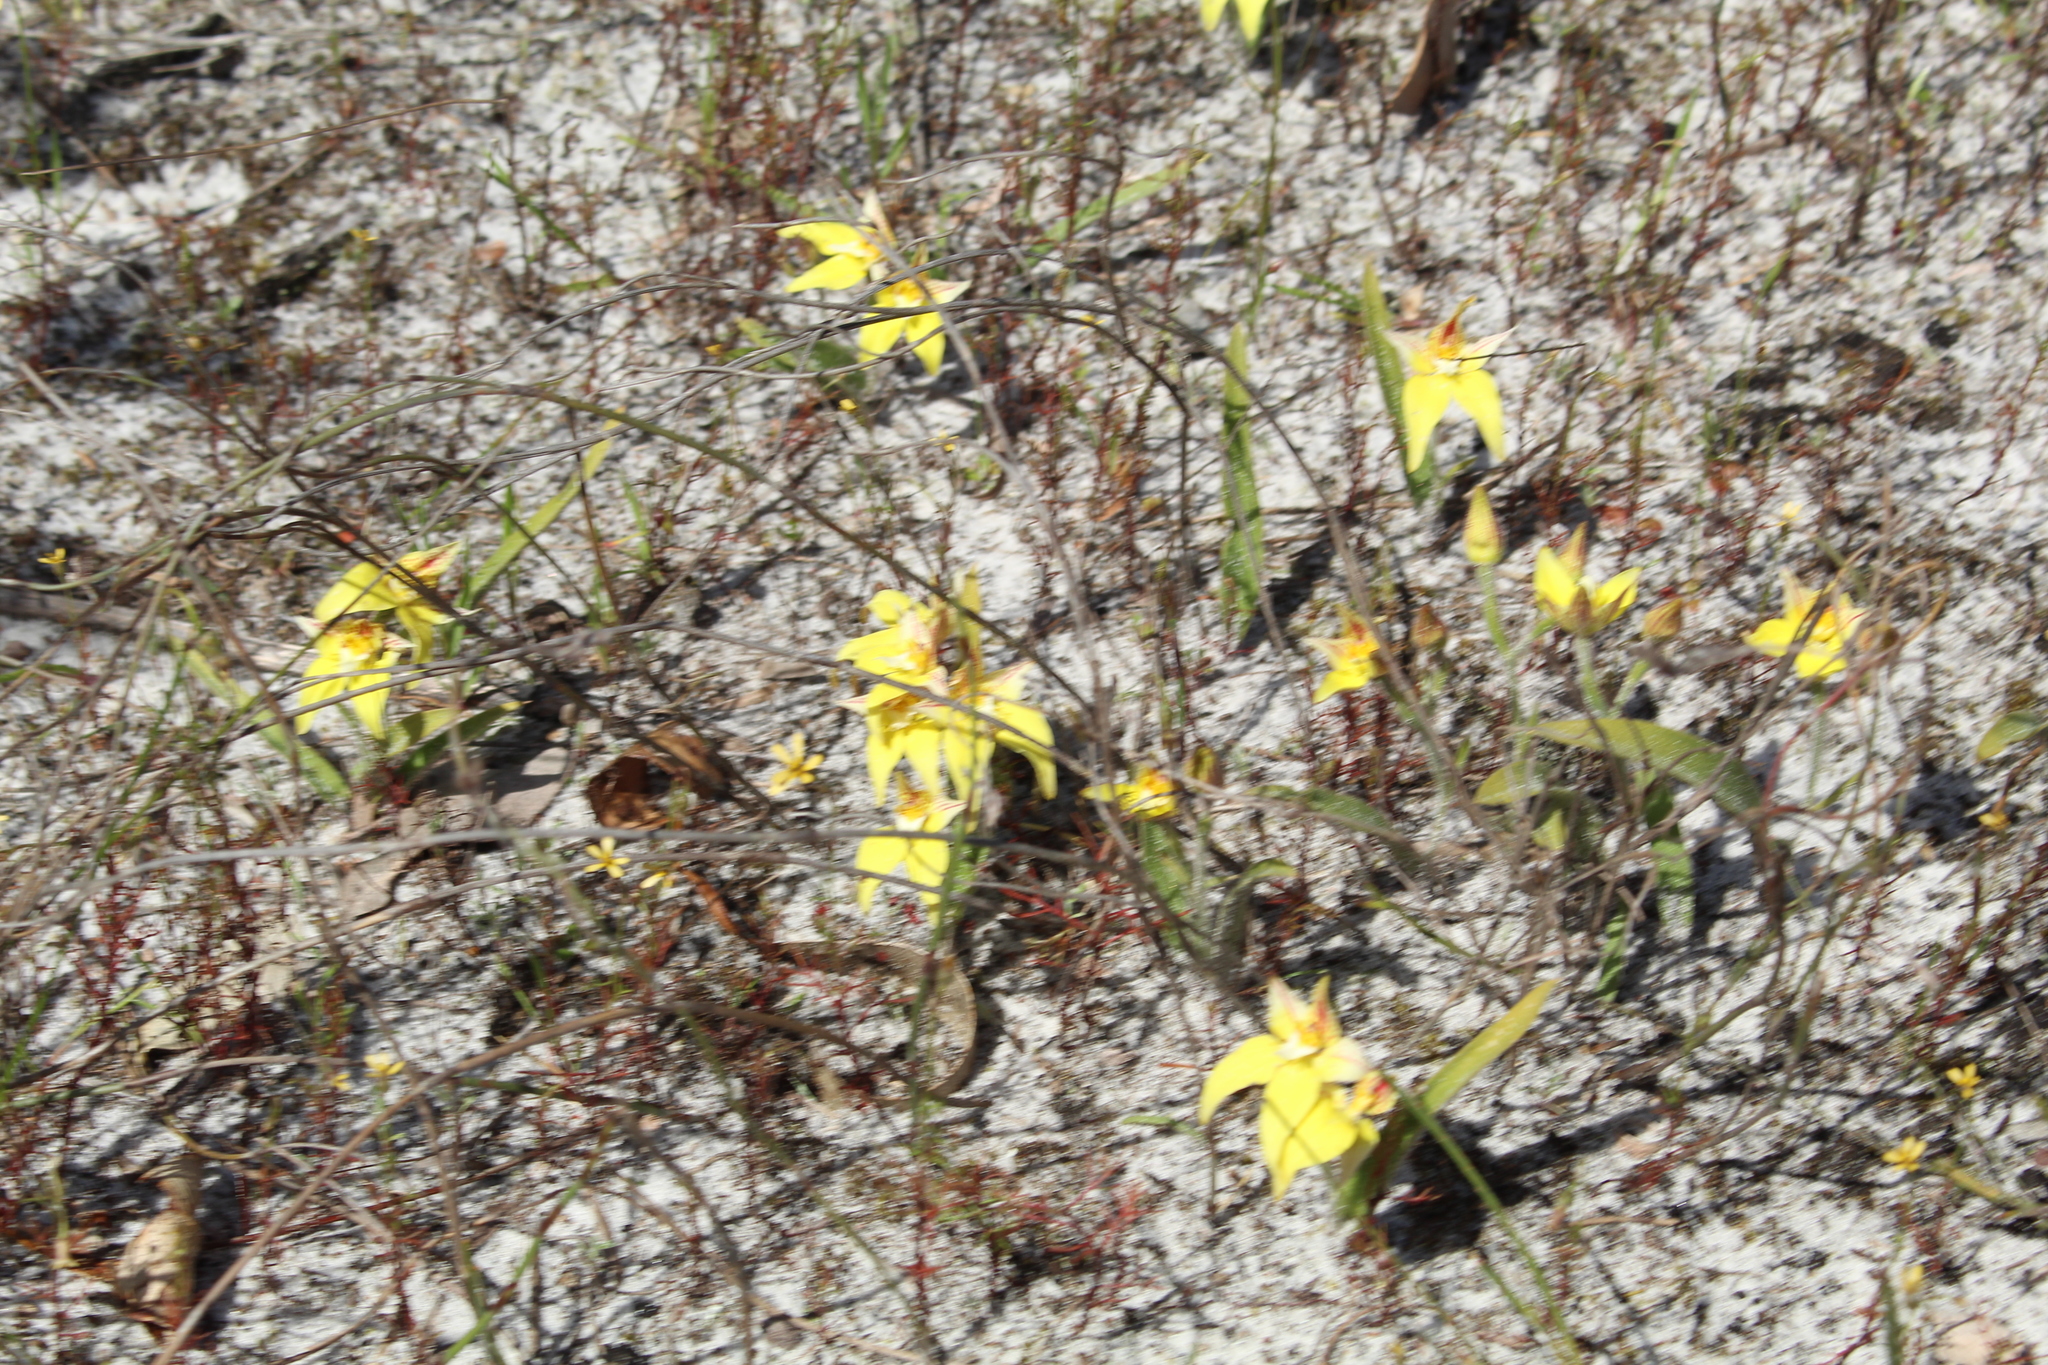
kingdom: Plantae
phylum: Tracheophyta
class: Liliopsida
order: Asparagales
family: Orchidaceae
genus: Caladenia
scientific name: Caladenia flava
